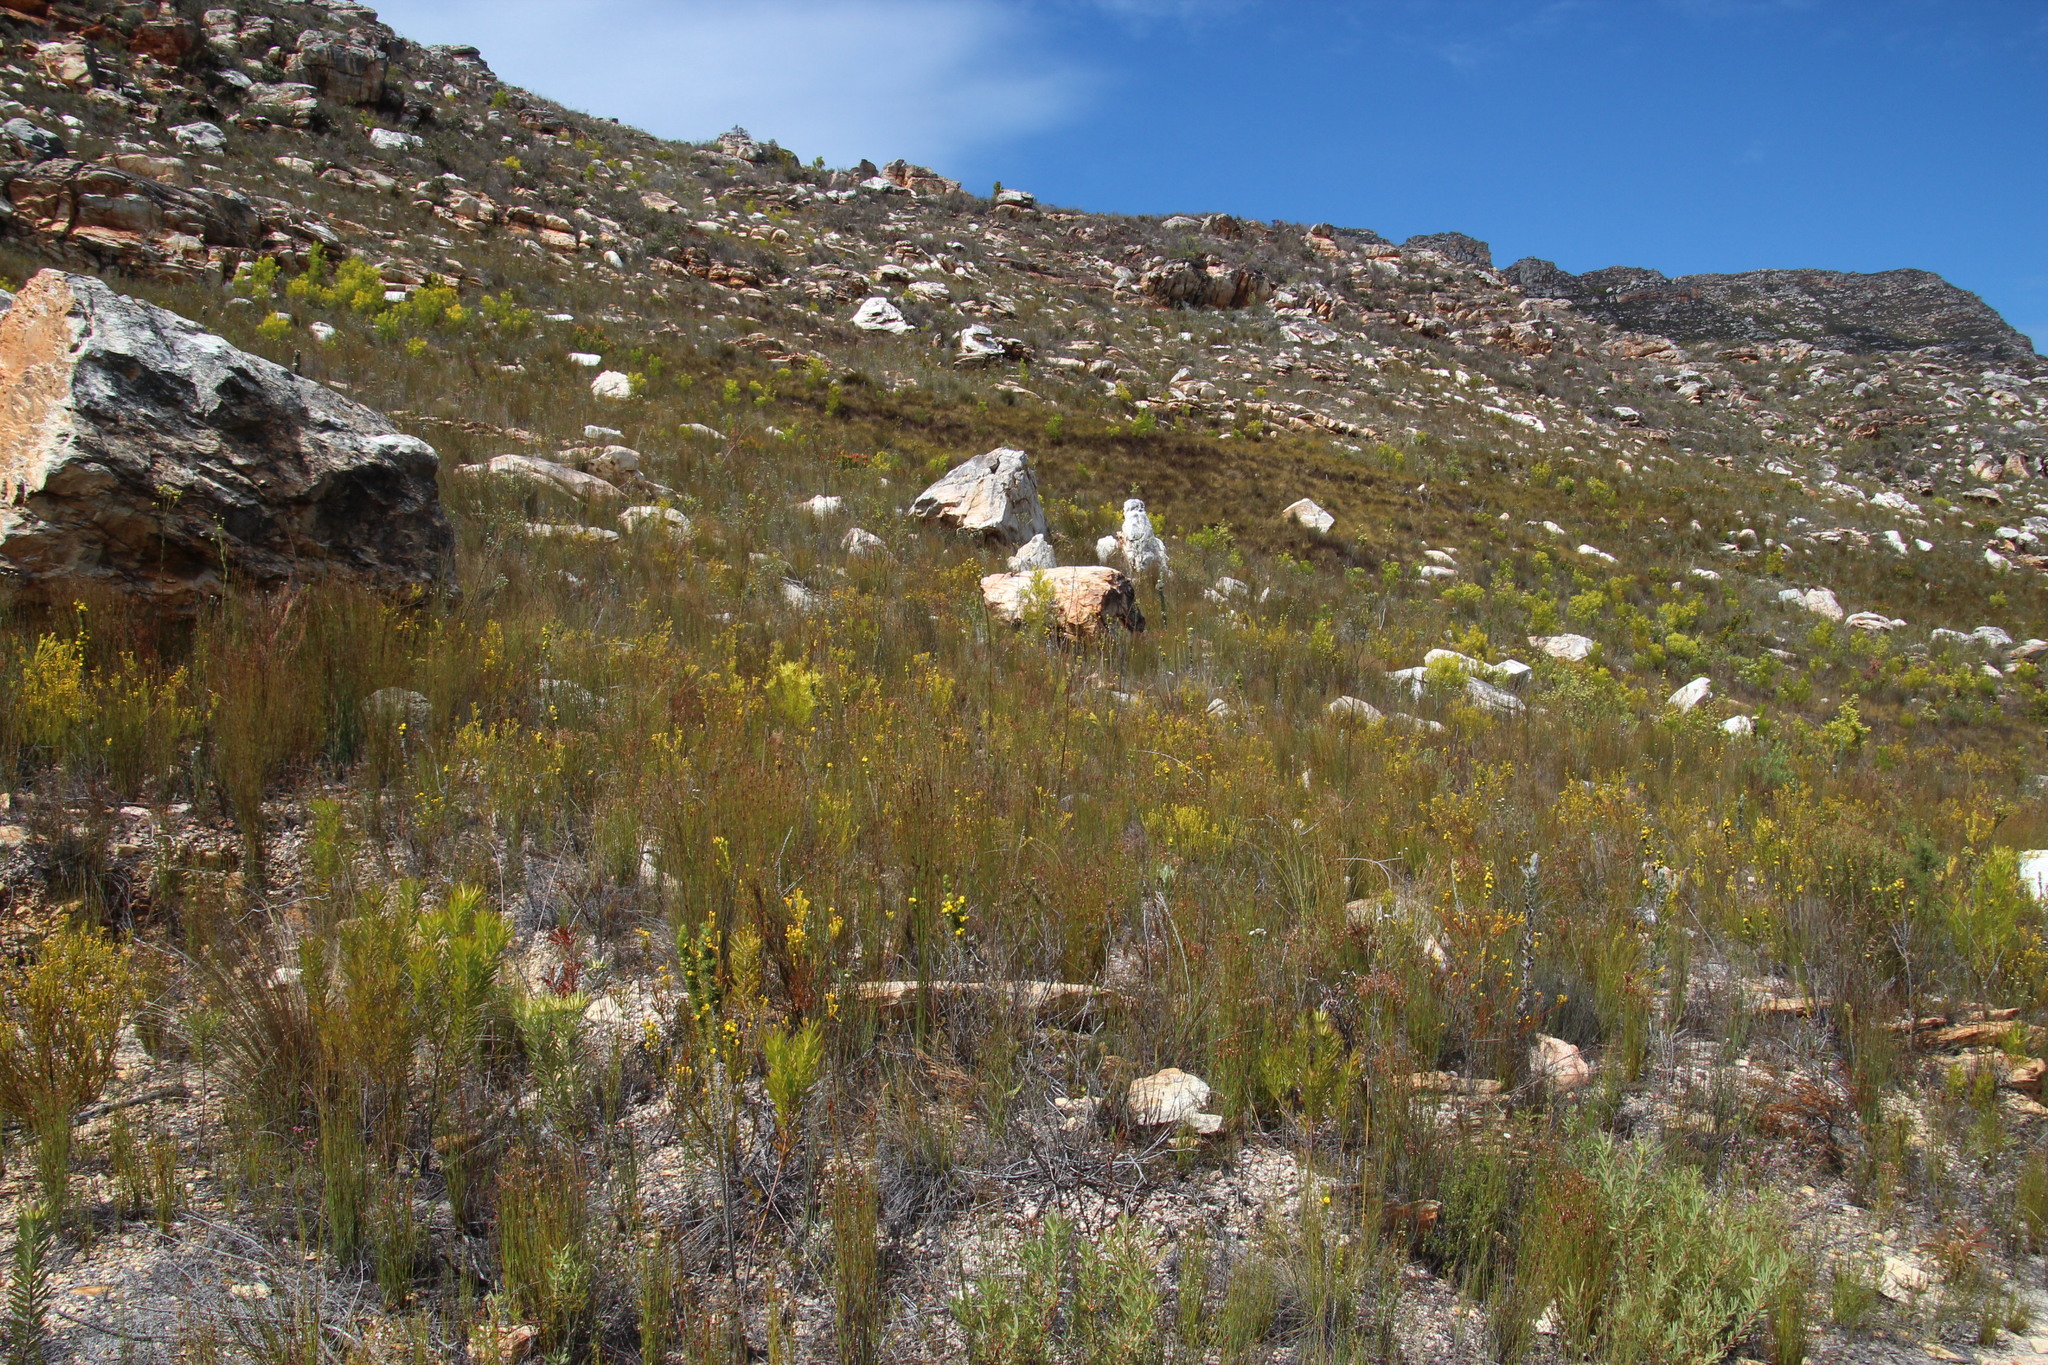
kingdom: Plantae
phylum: Tracheophyta
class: Magnoliopsida
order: Proteales
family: Proteaceae
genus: Leucadendron
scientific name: Leucadendron olens
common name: Yellow conebush
